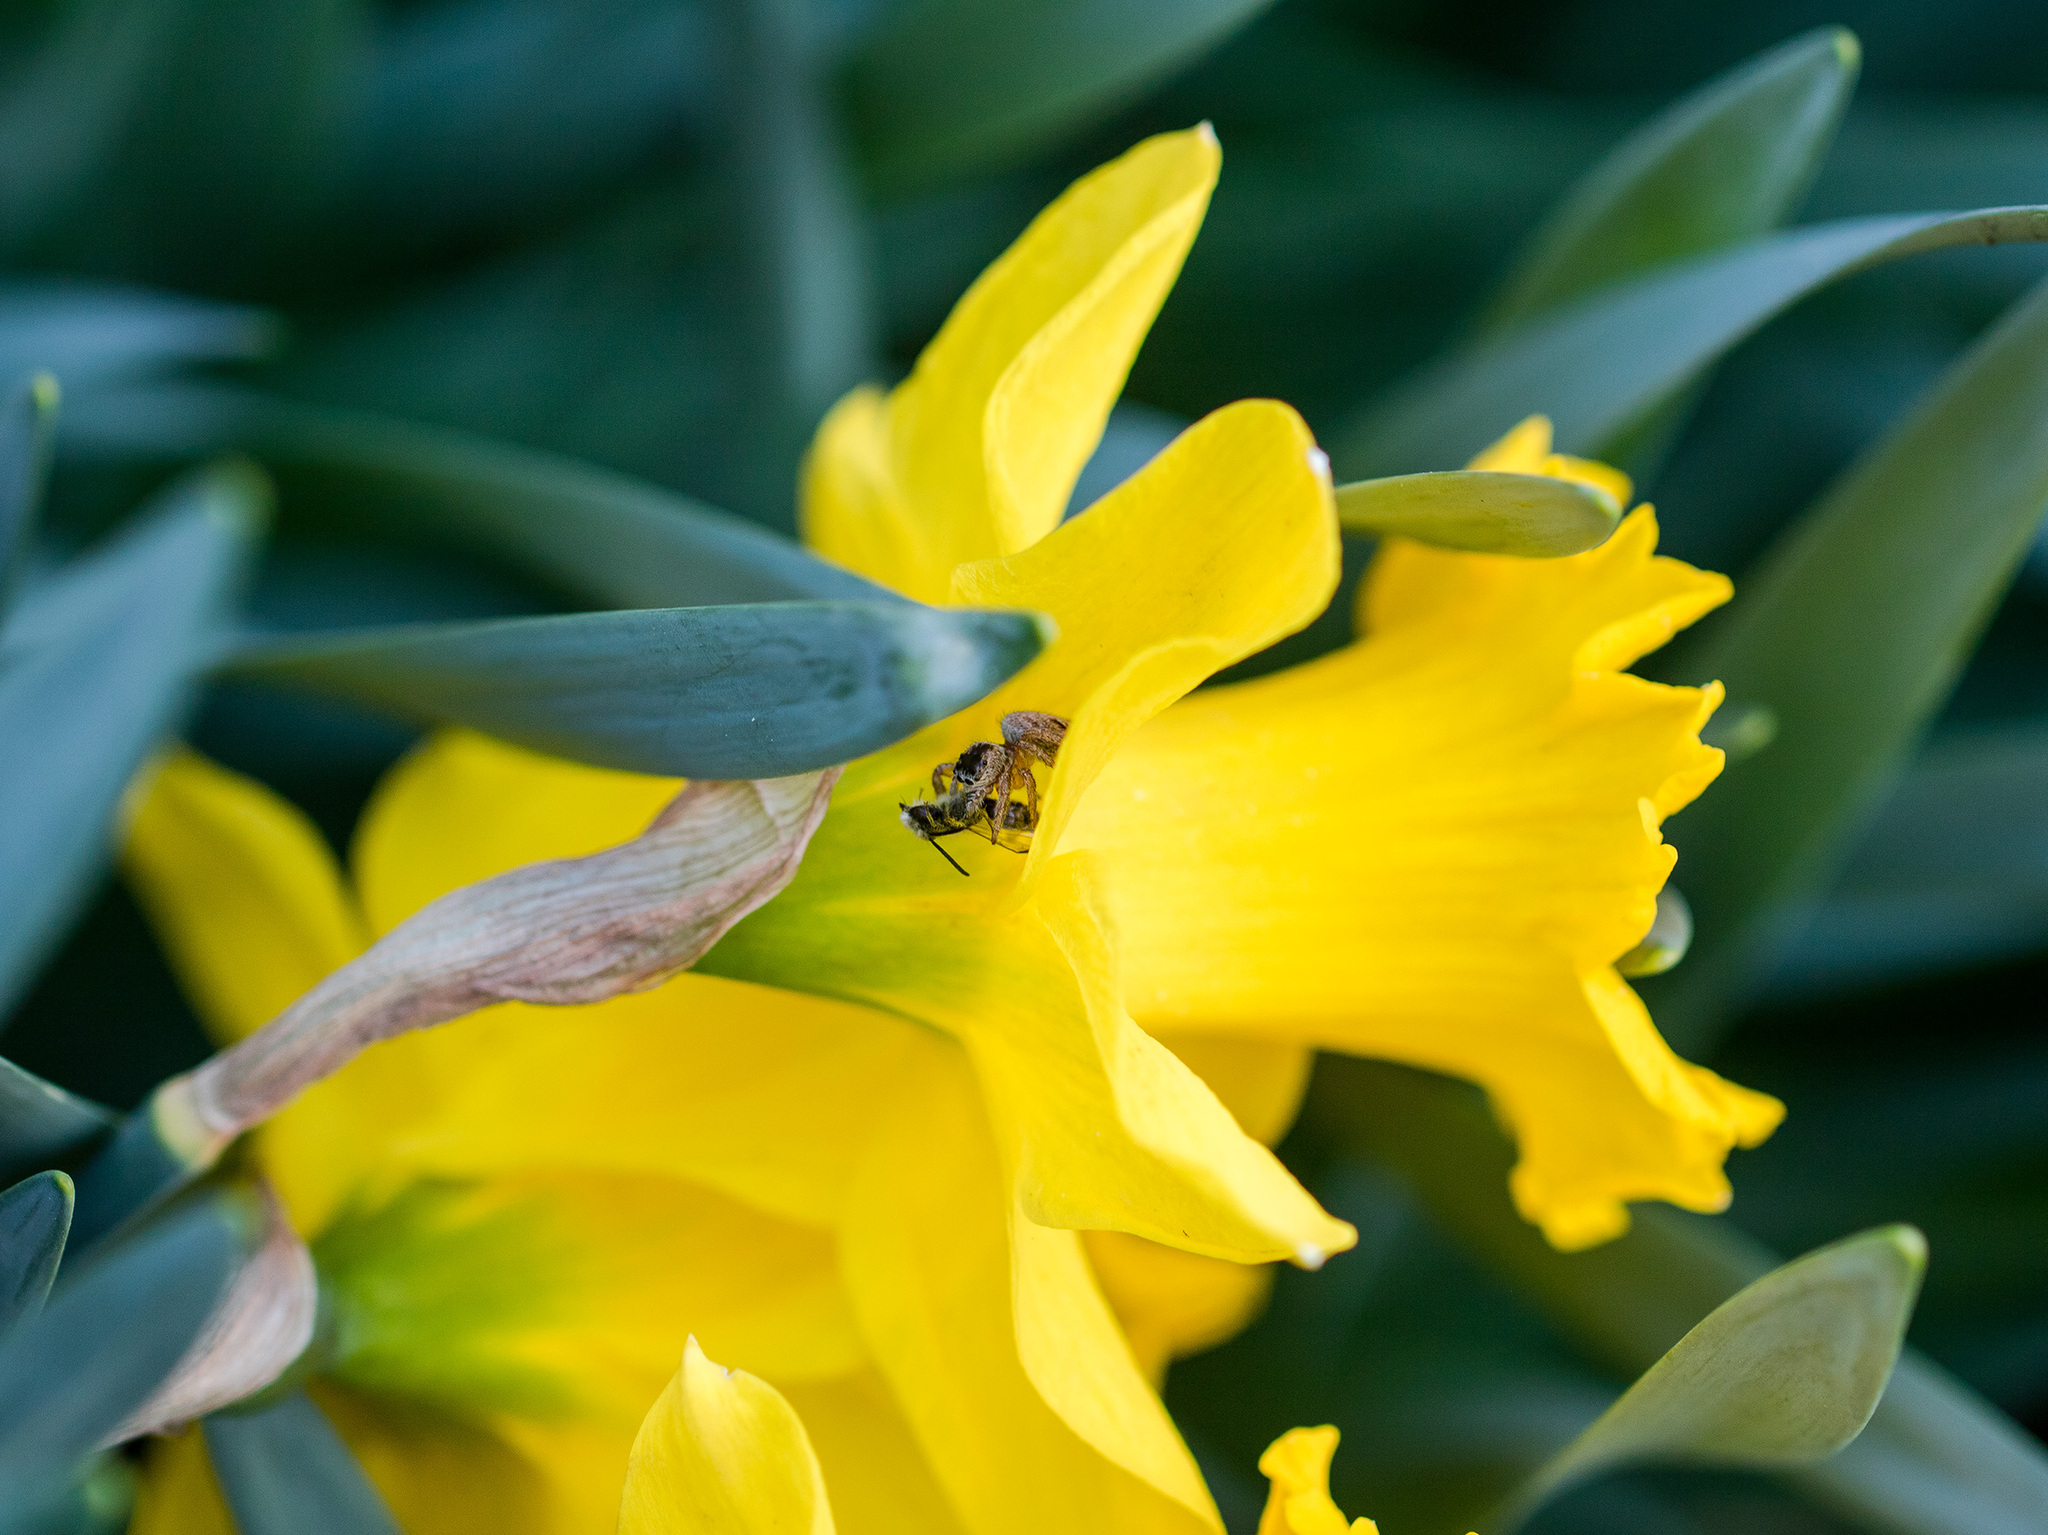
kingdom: Animalia
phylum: Arthropoda
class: Arachnida
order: Araneae
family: Salticidae
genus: Evarcha
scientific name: Evarcha arcuata
